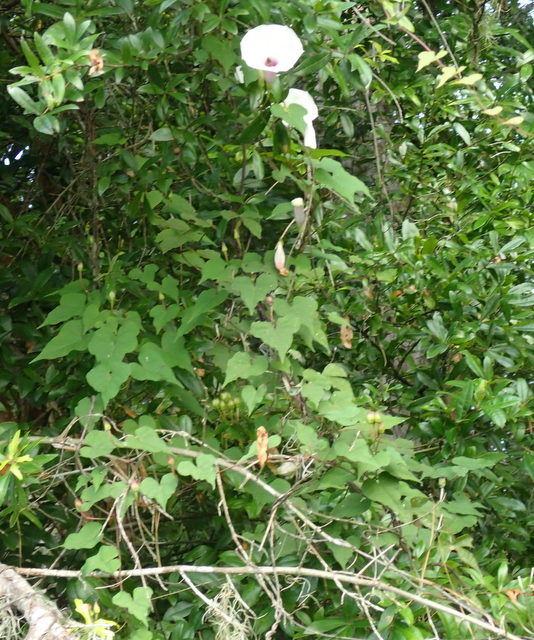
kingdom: Plantae
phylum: Tracheophyta
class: Magnoliopsida
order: Solanales
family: Convolvulaceae
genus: Ipomoea
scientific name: Ipomoea pandurata
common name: Man-of-the-earth
